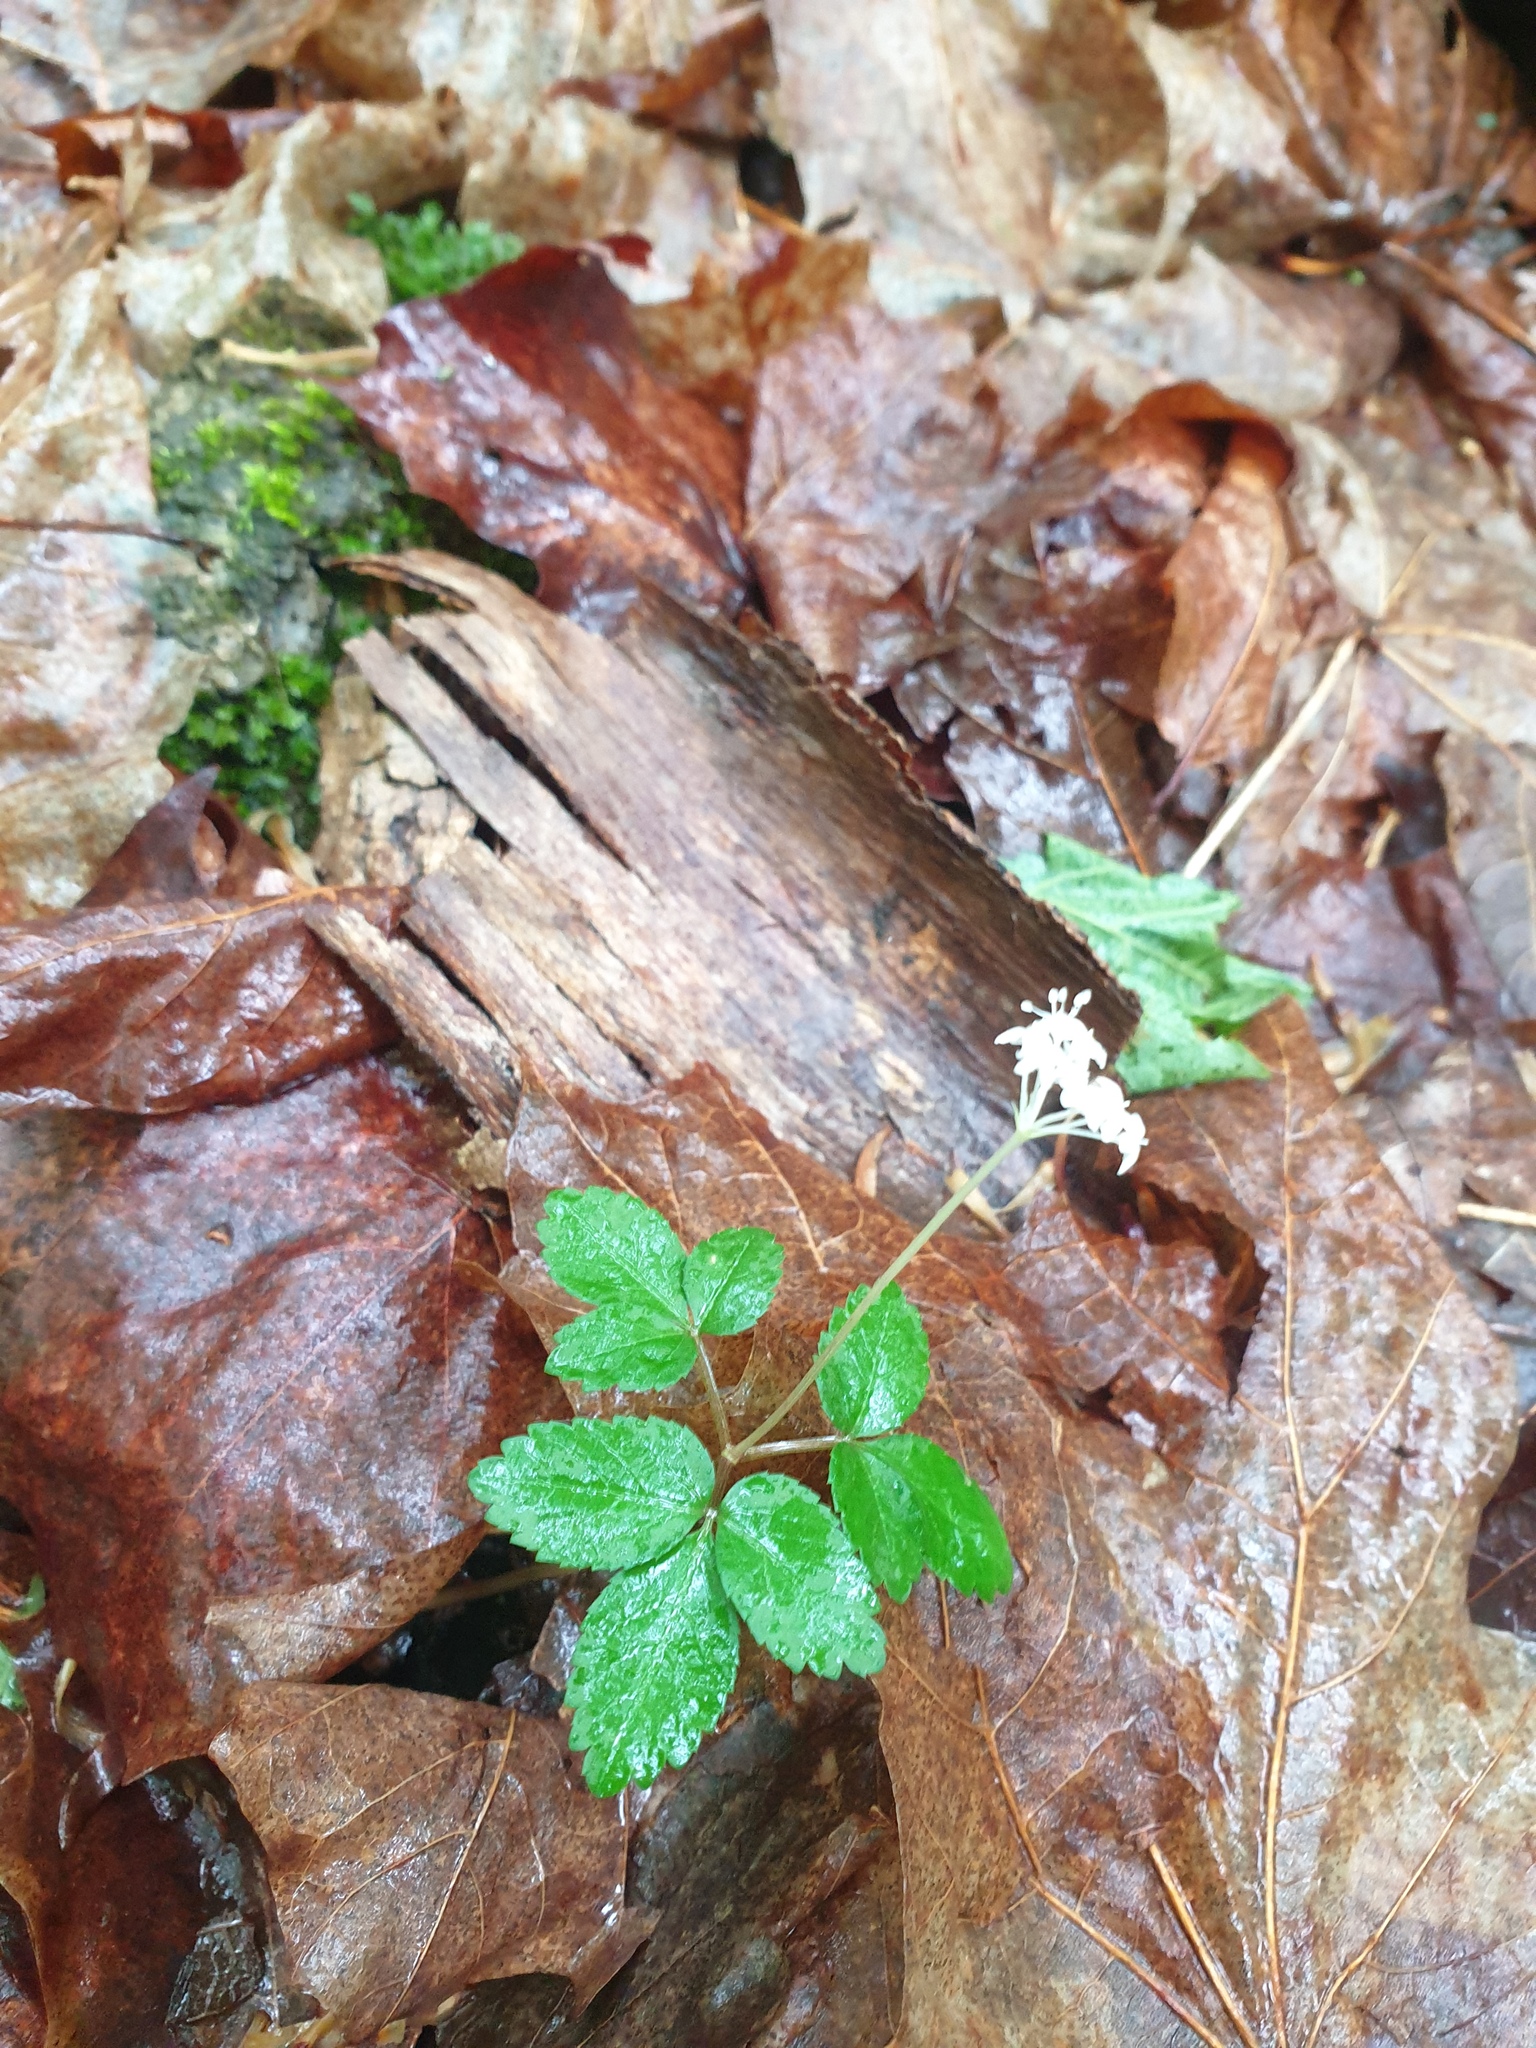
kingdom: Plantae
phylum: Tracheophyta
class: Magnoliopsida
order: Apiales
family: Araliaceae
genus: Panax
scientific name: Panax trifolius
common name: Dwarf ginseng
